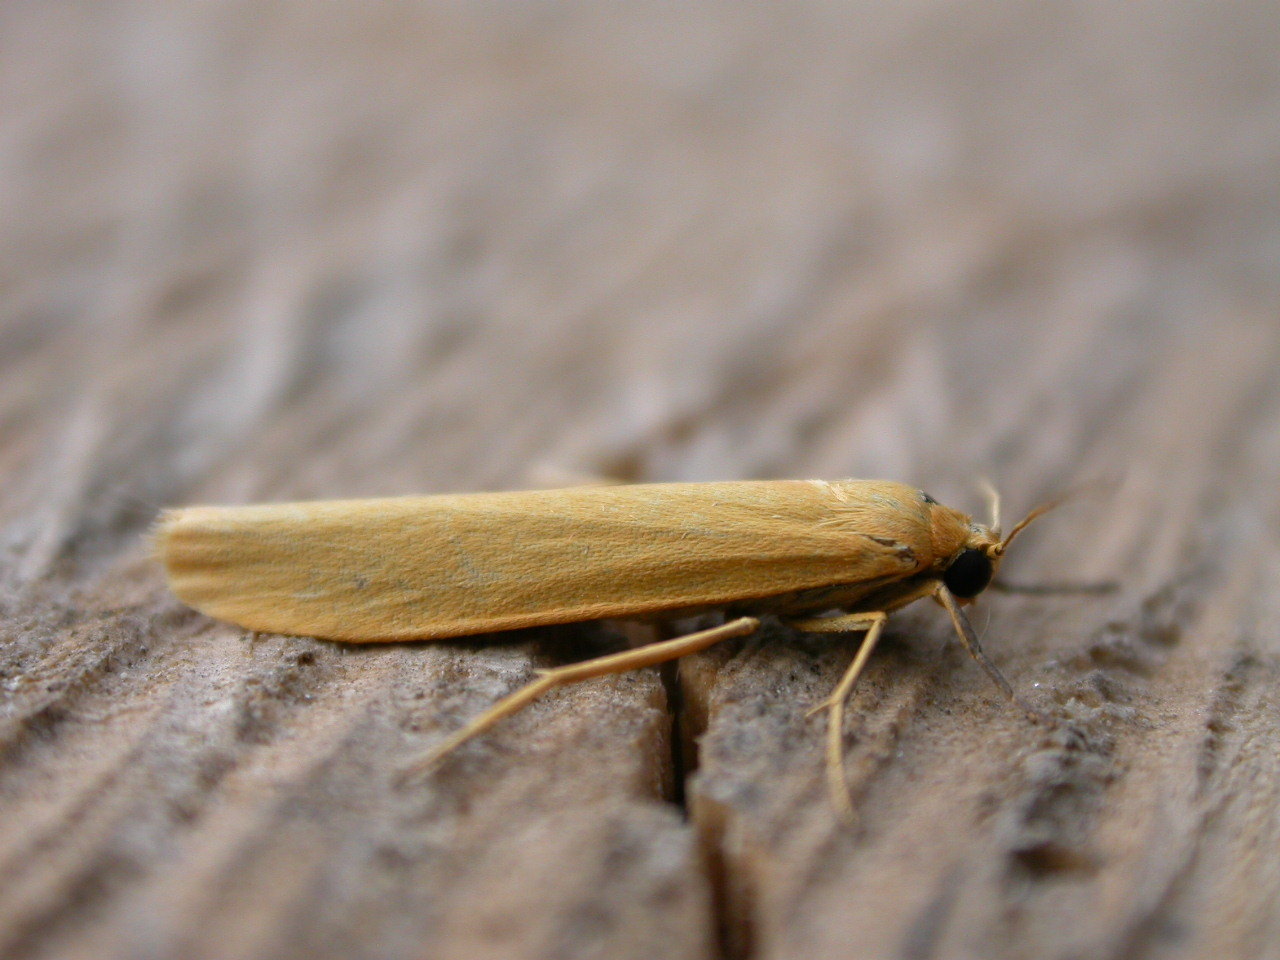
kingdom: Animalia
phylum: Arthropoda
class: Insecta
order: Lepidoptera
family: Erebidae
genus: Indalia
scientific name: Indalia lutarella
